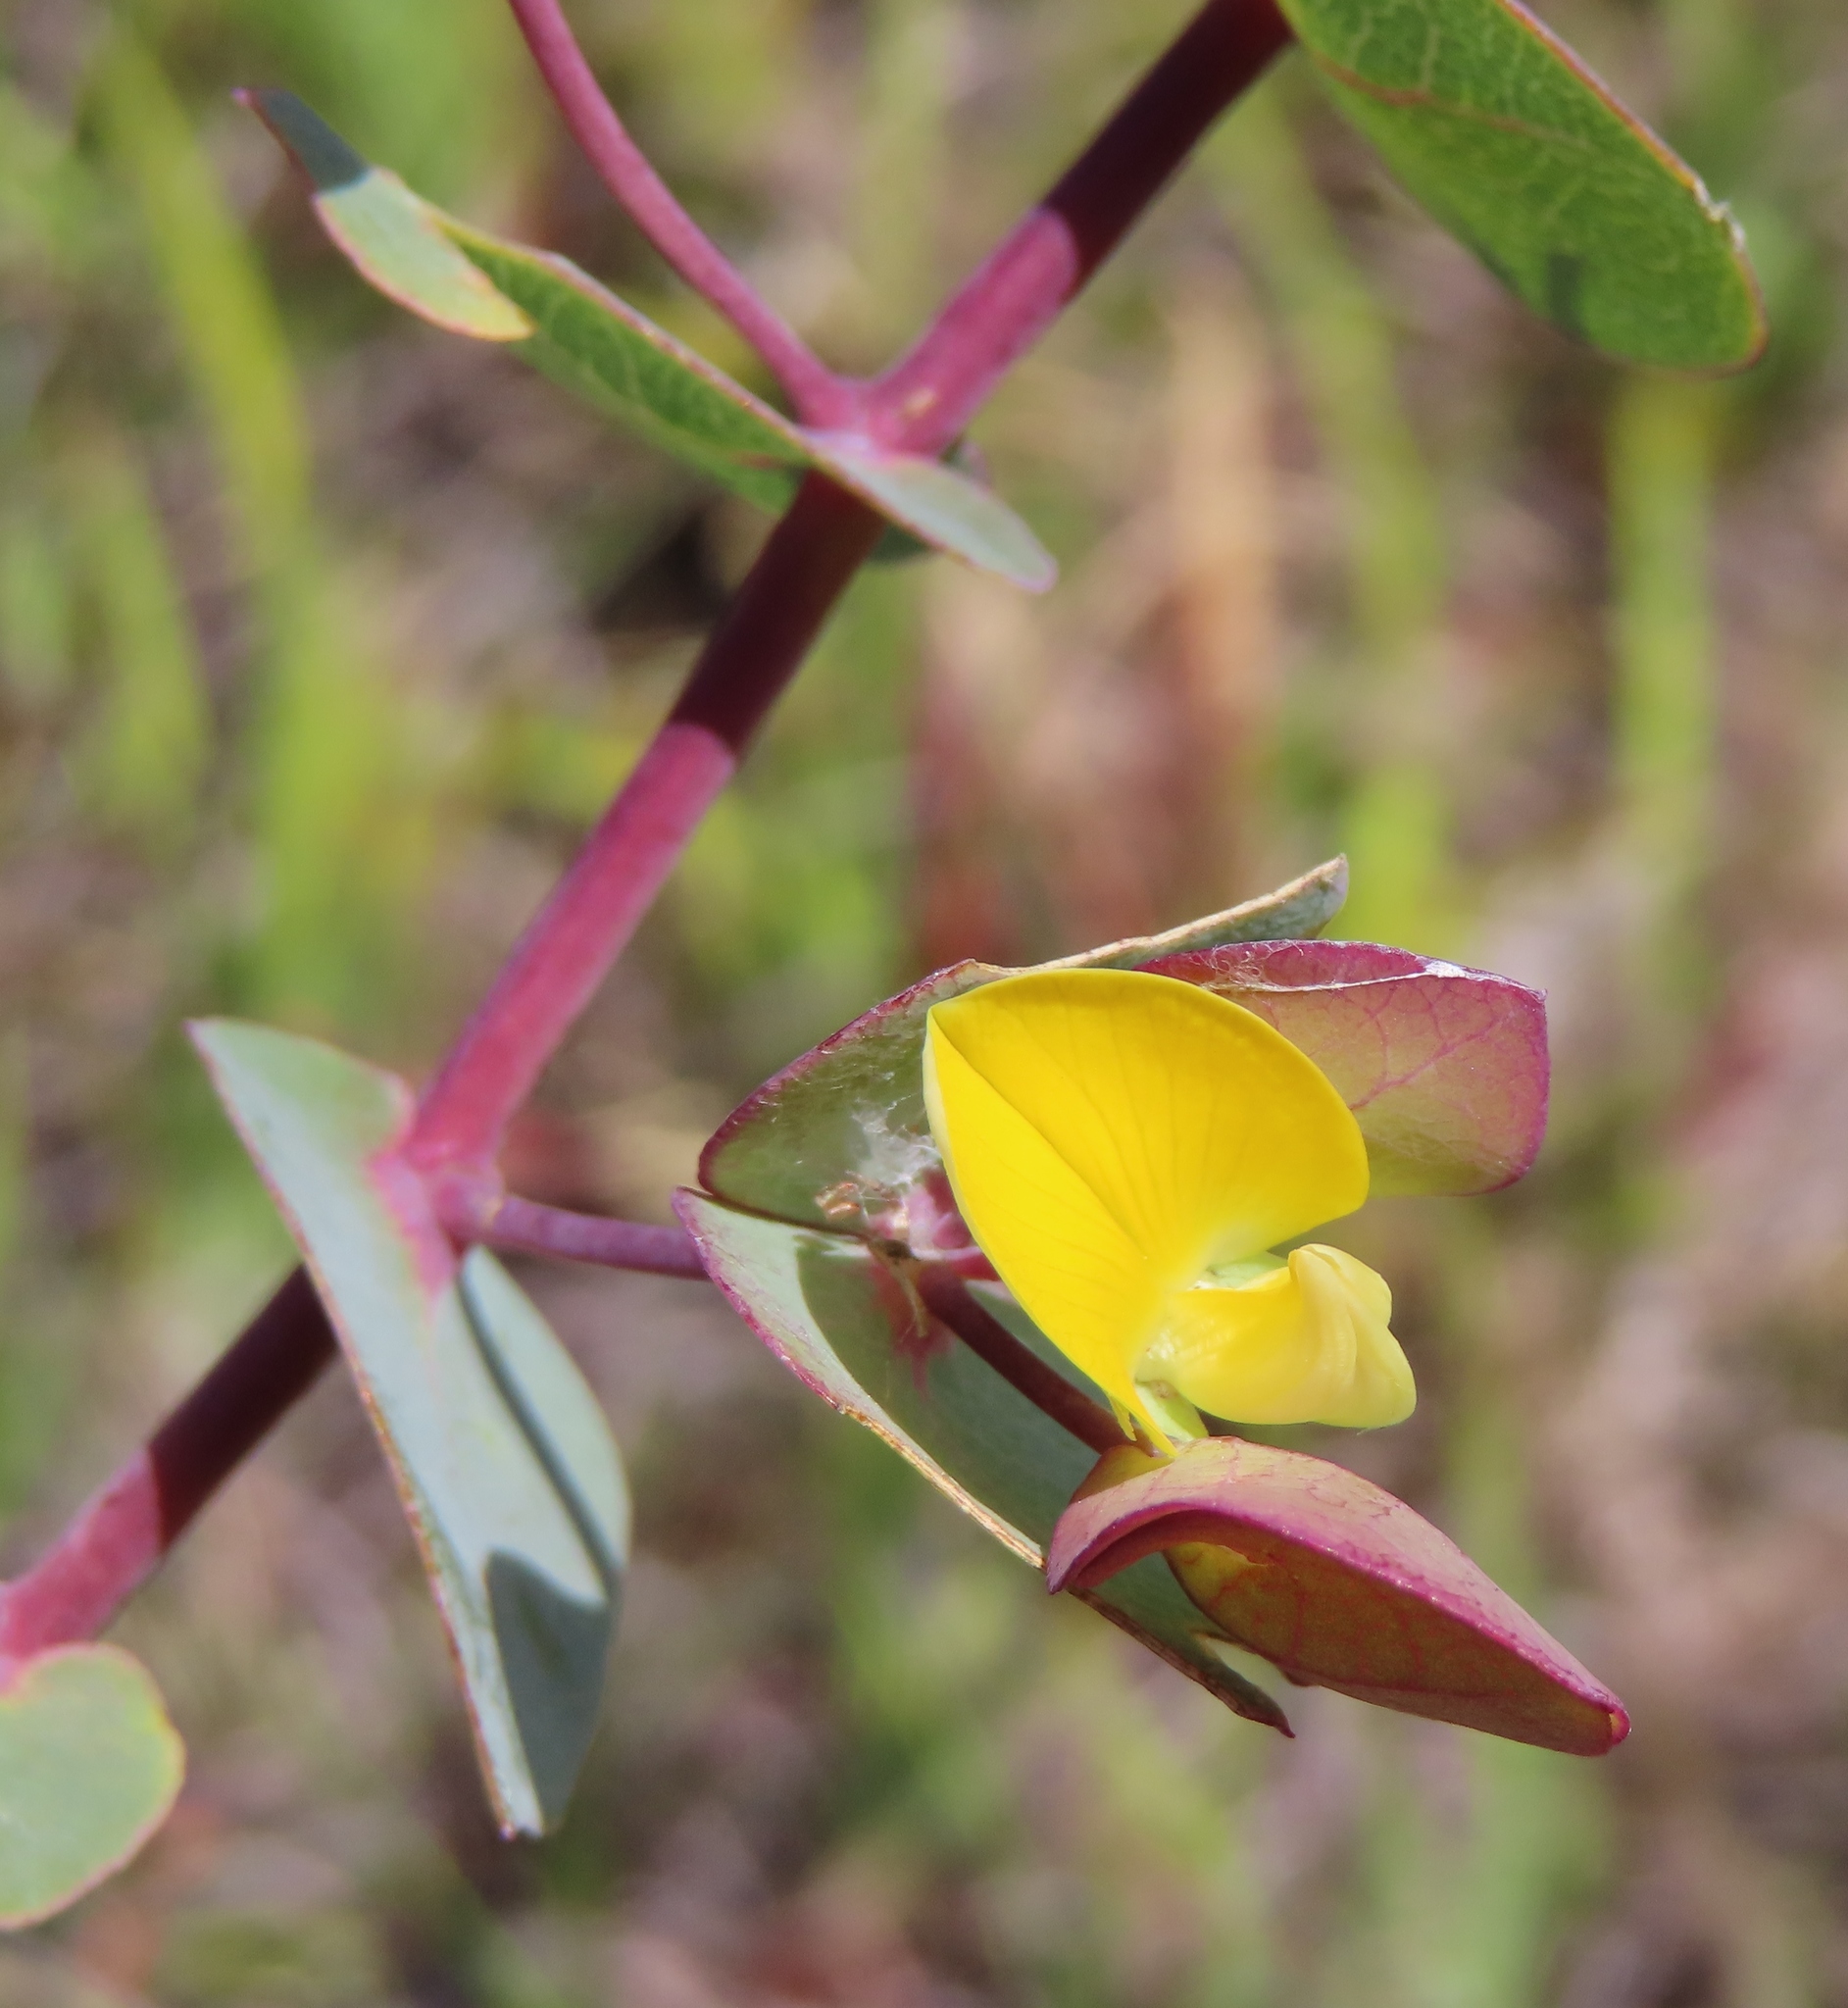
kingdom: Plantae
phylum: Tracheophyta
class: Magnoliopsida
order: Fabales
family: Fabaceae
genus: Rafnia
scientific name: Rafnia acuminata
